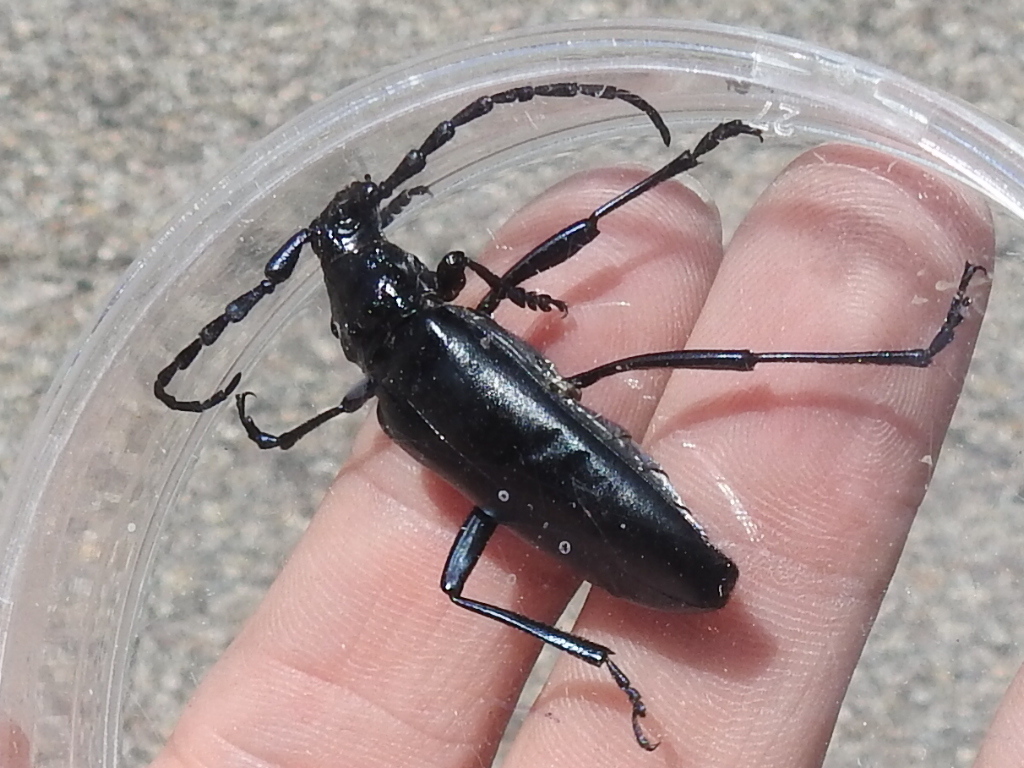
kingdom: Animalia
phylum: Arthropoda
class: Insecta
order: Coleoptera
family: Cerambycidae
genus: Stenaspis
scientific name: Stenaspis solitaria
